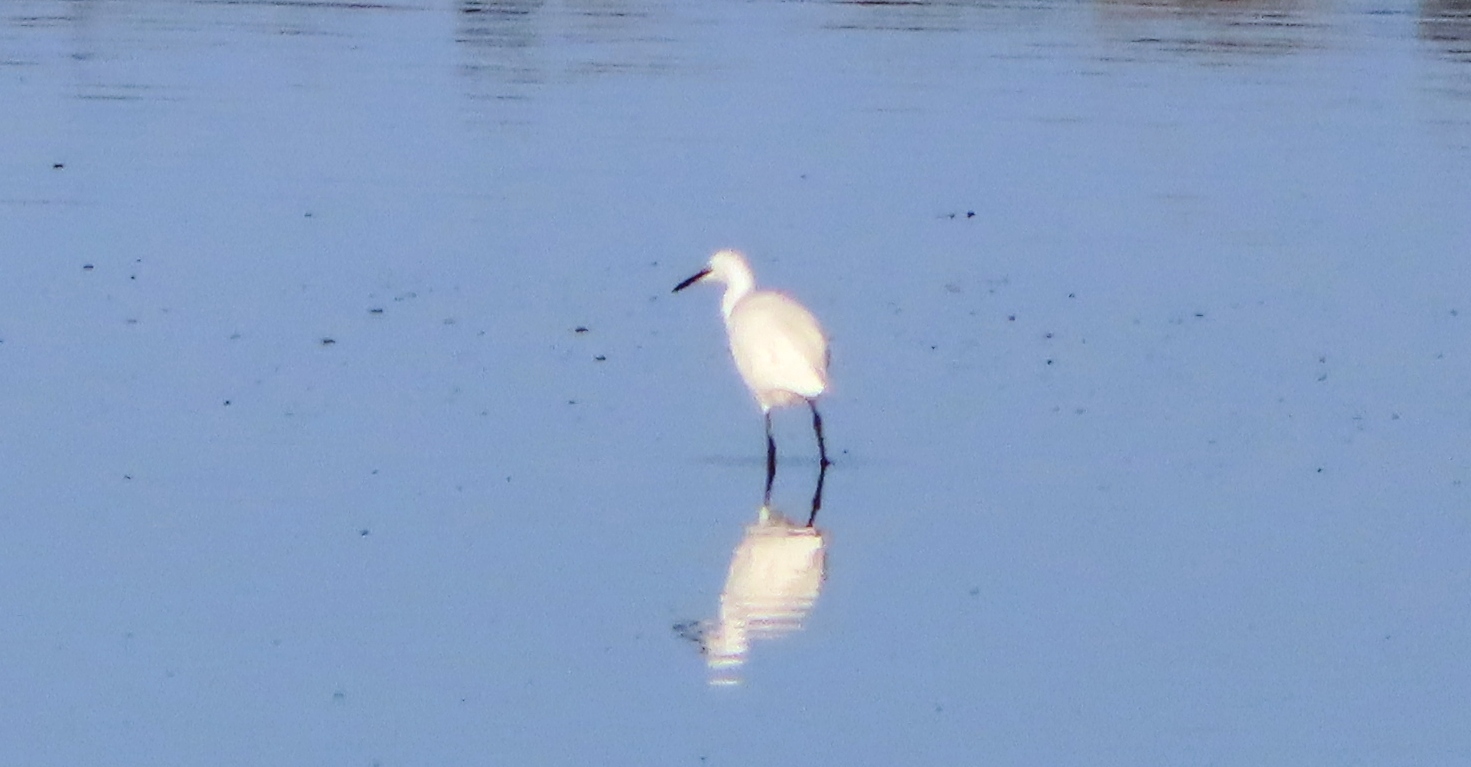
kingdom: Animalia
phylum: Chordata
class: Aves
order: Pelecaniformes
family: Ardeidae
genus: Egretta
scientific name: Egretta garzetta
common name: Little egret
